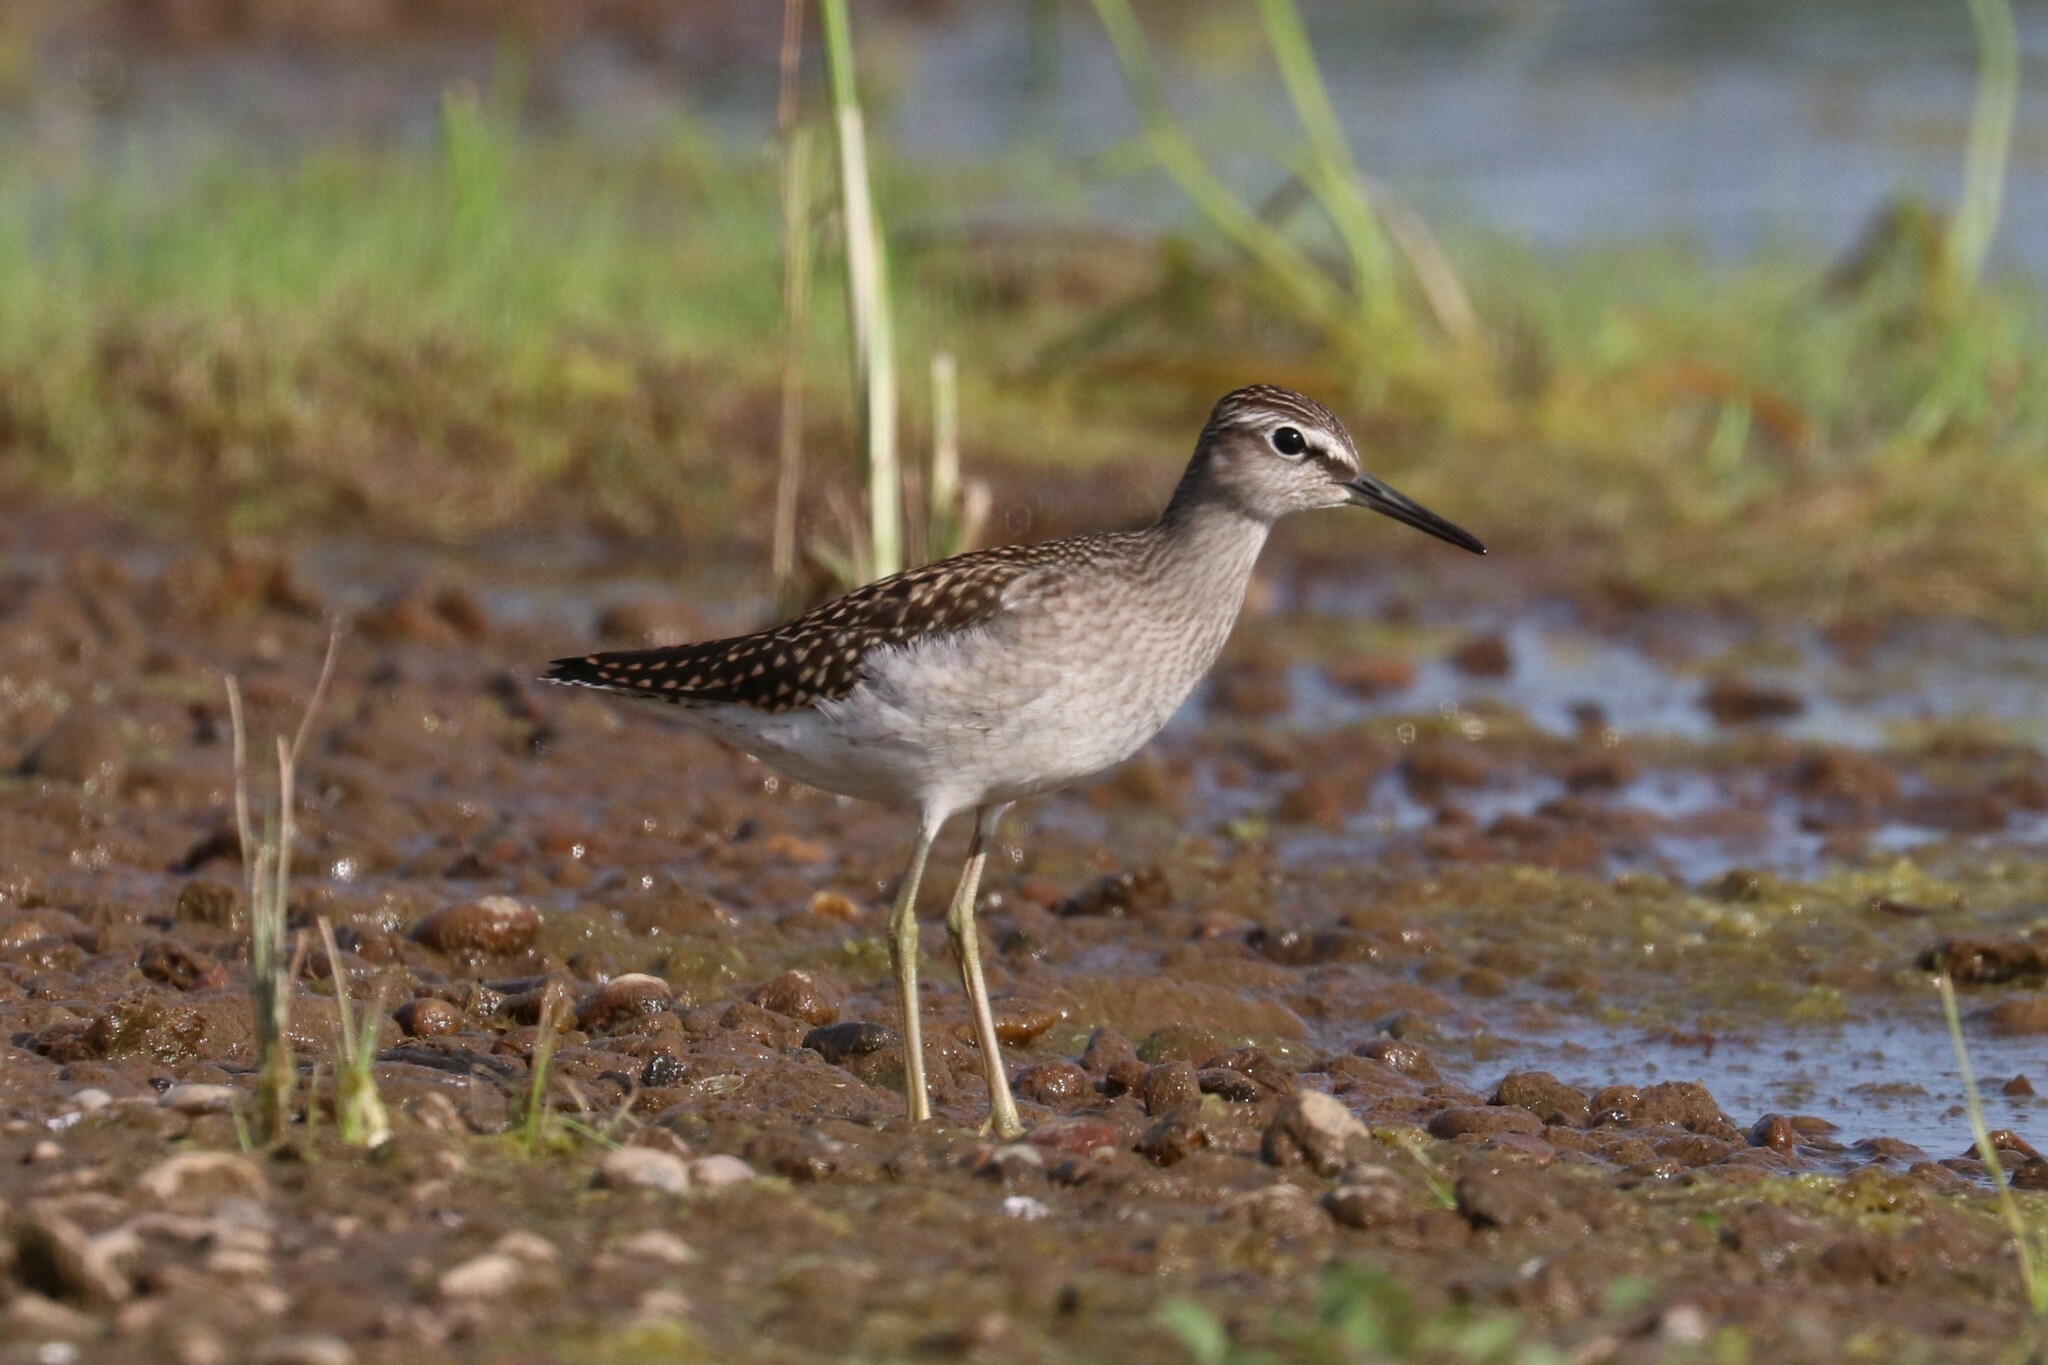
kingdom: Animalia
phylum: Chordata
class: Aves
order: Charadriiformes
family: Scolopacidae
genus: Tringa
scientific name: Tringa glareola
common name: Wood sandpiper
